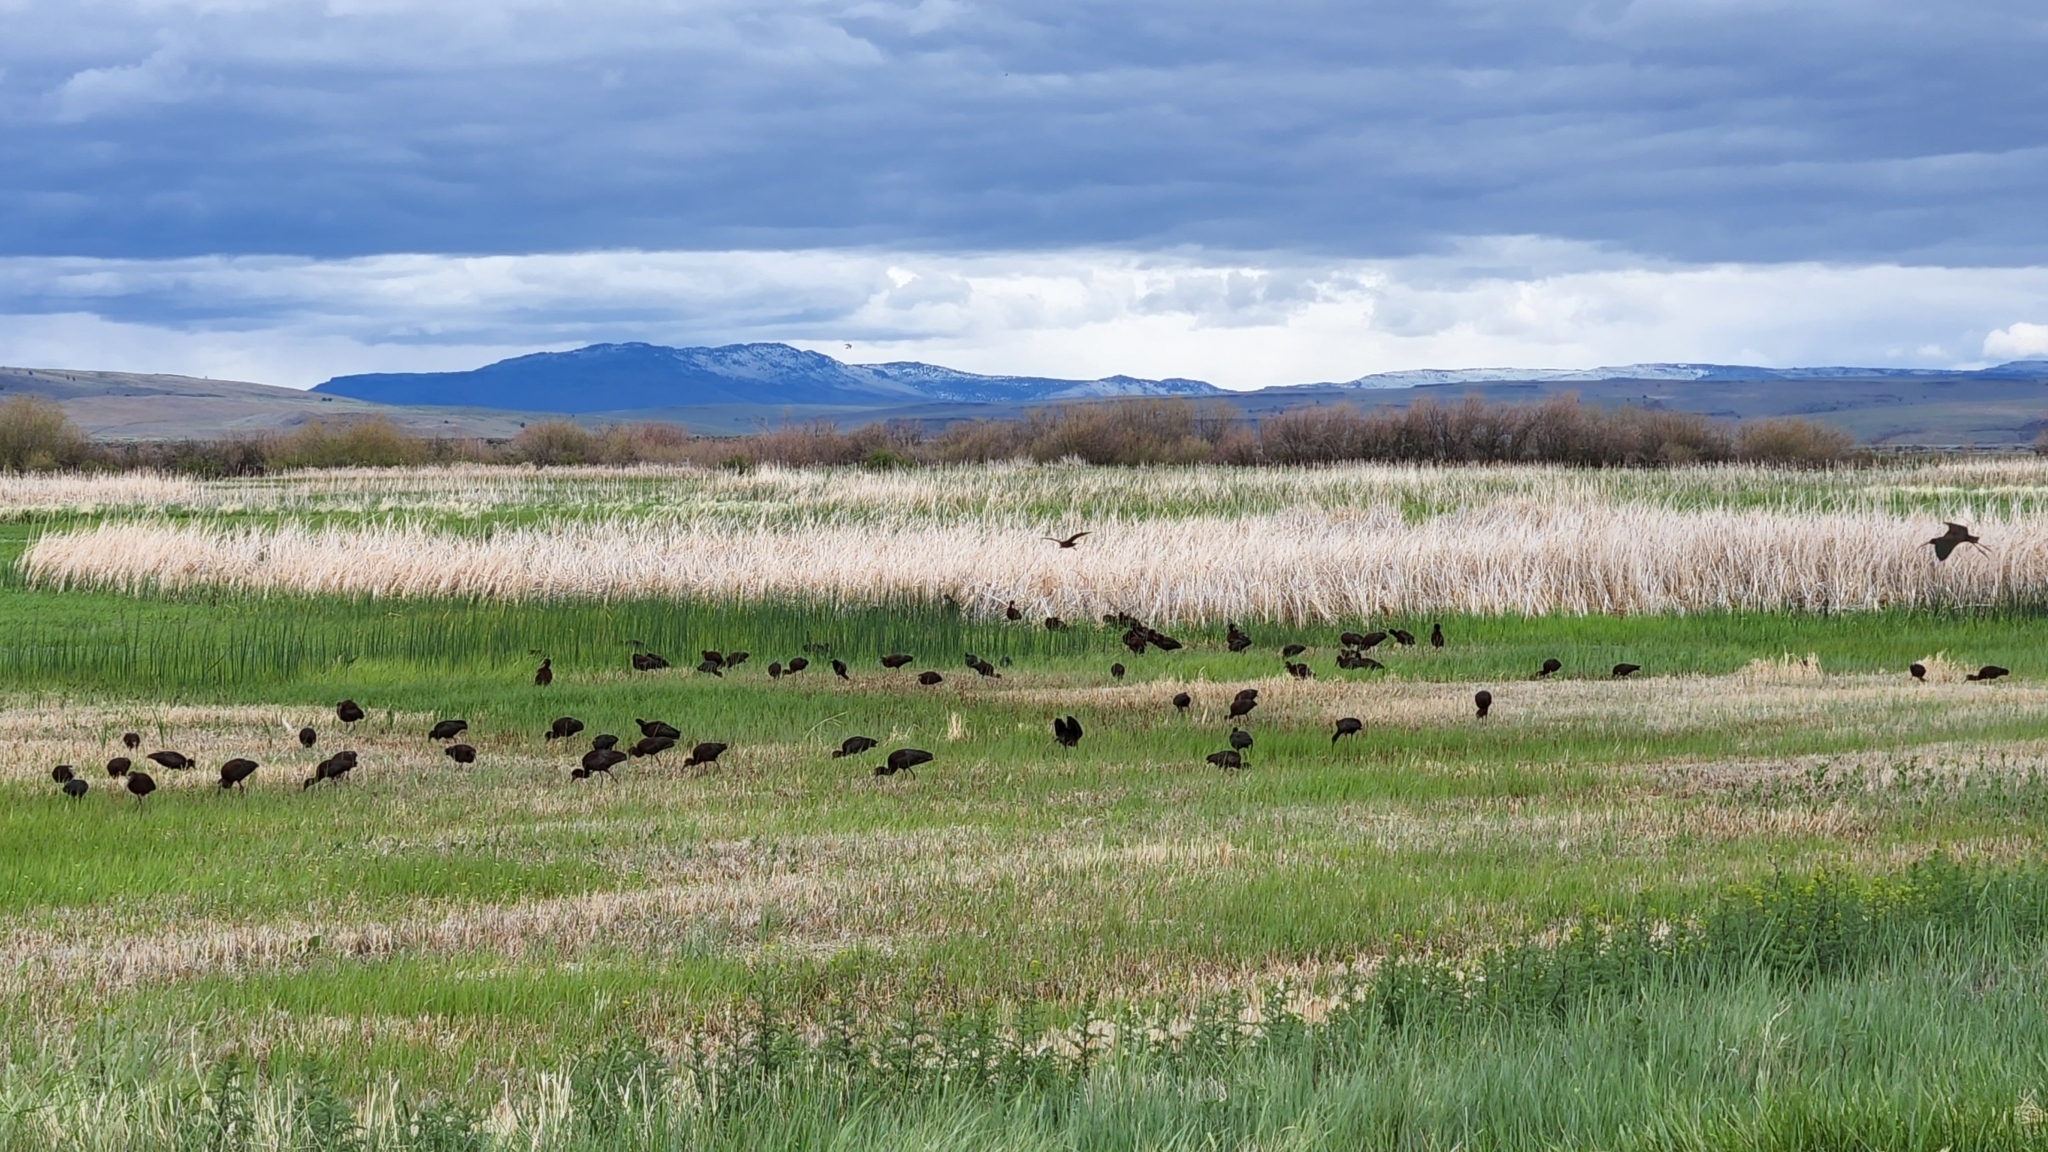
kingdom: Animalia
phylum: Chordata
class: Aves
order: Pelecaniformes
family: Threskiornithidae
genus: Plegadis
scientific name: Plegadis chihi
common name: White-faced ibis
